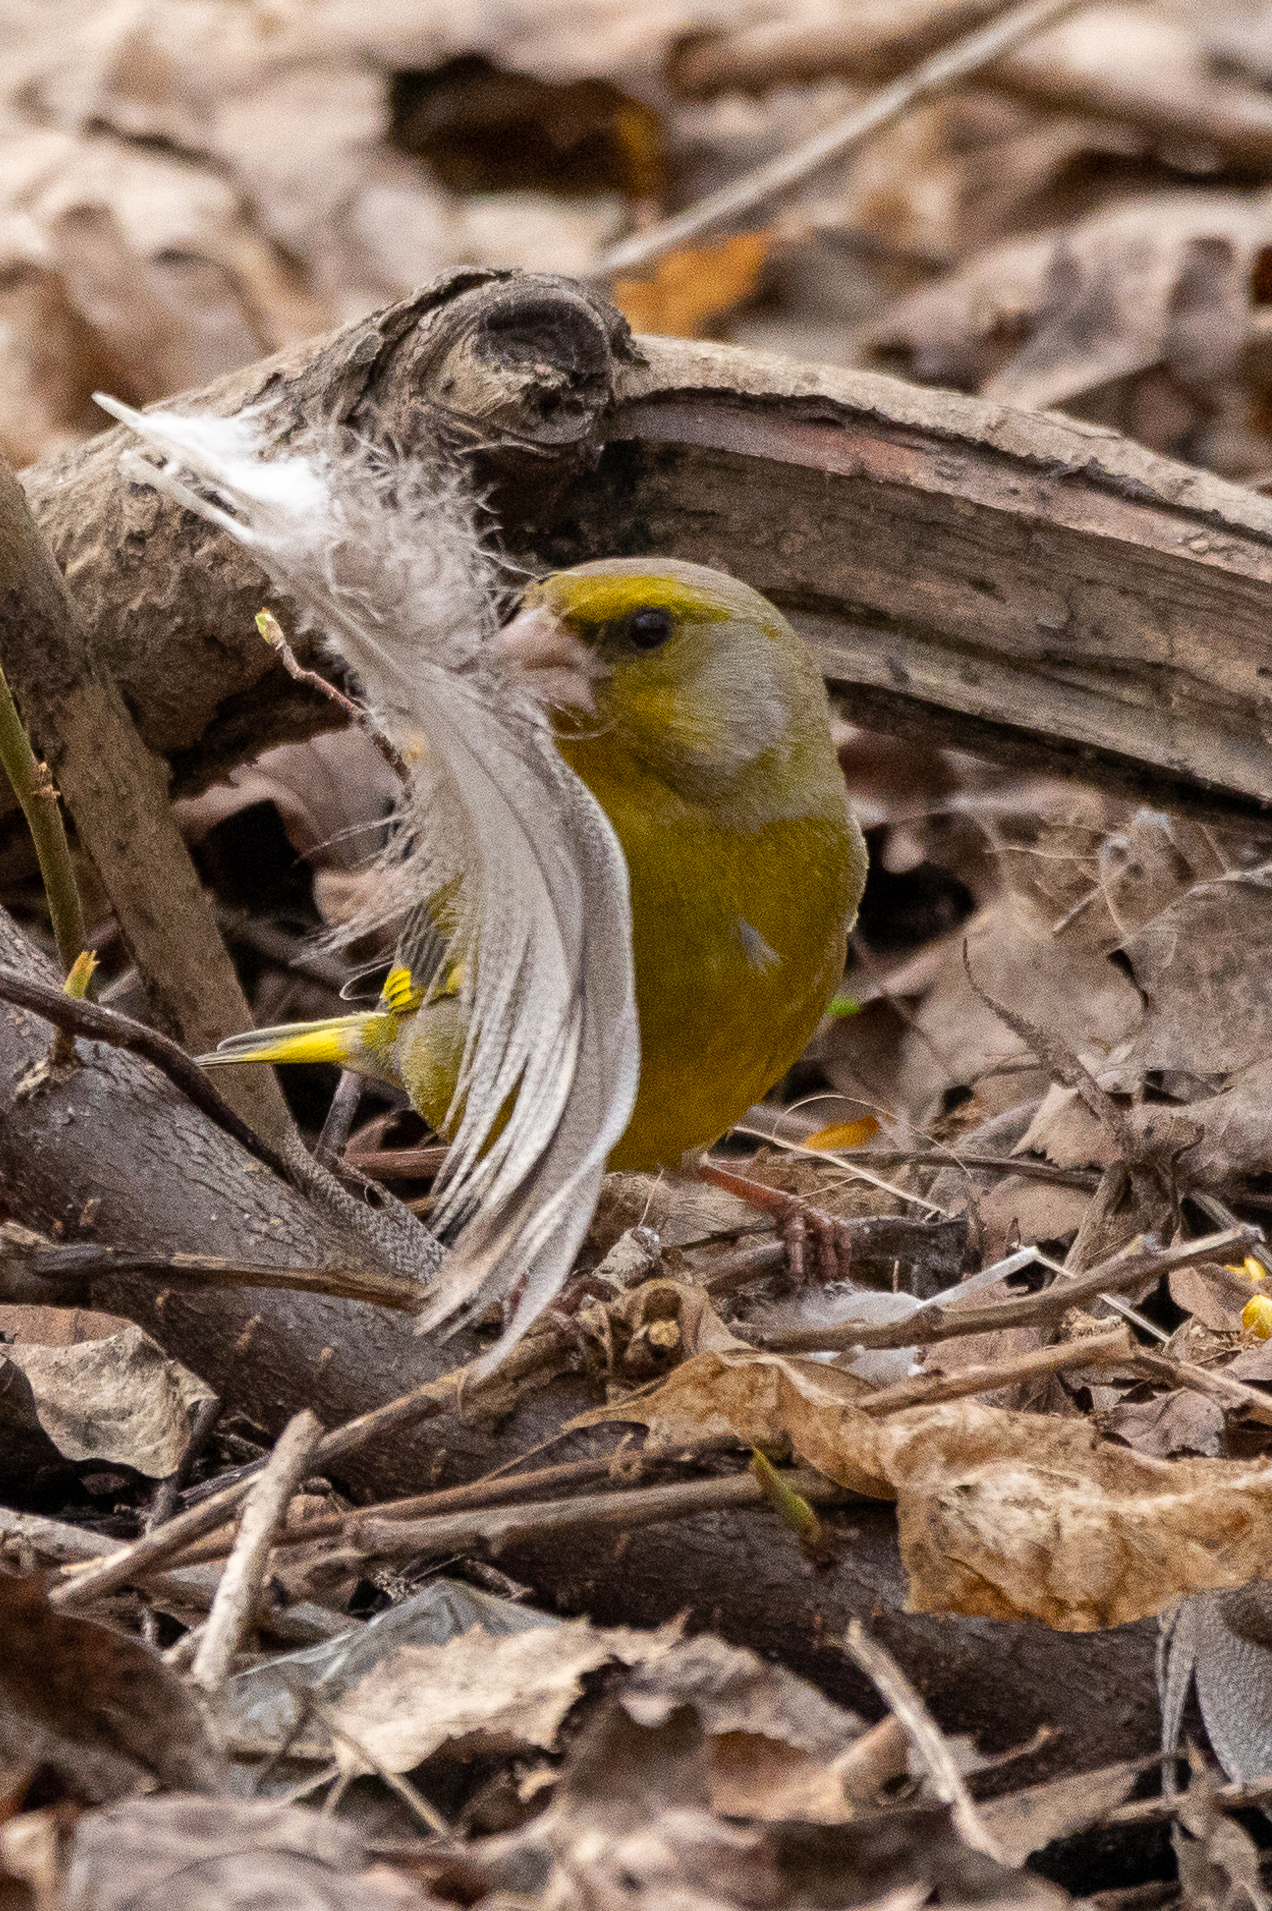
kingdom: Plantae
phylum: Tracheophyta
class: Liliopsida
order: Poales
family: Poaceae
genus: Chloris
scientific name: Chloris chloris
